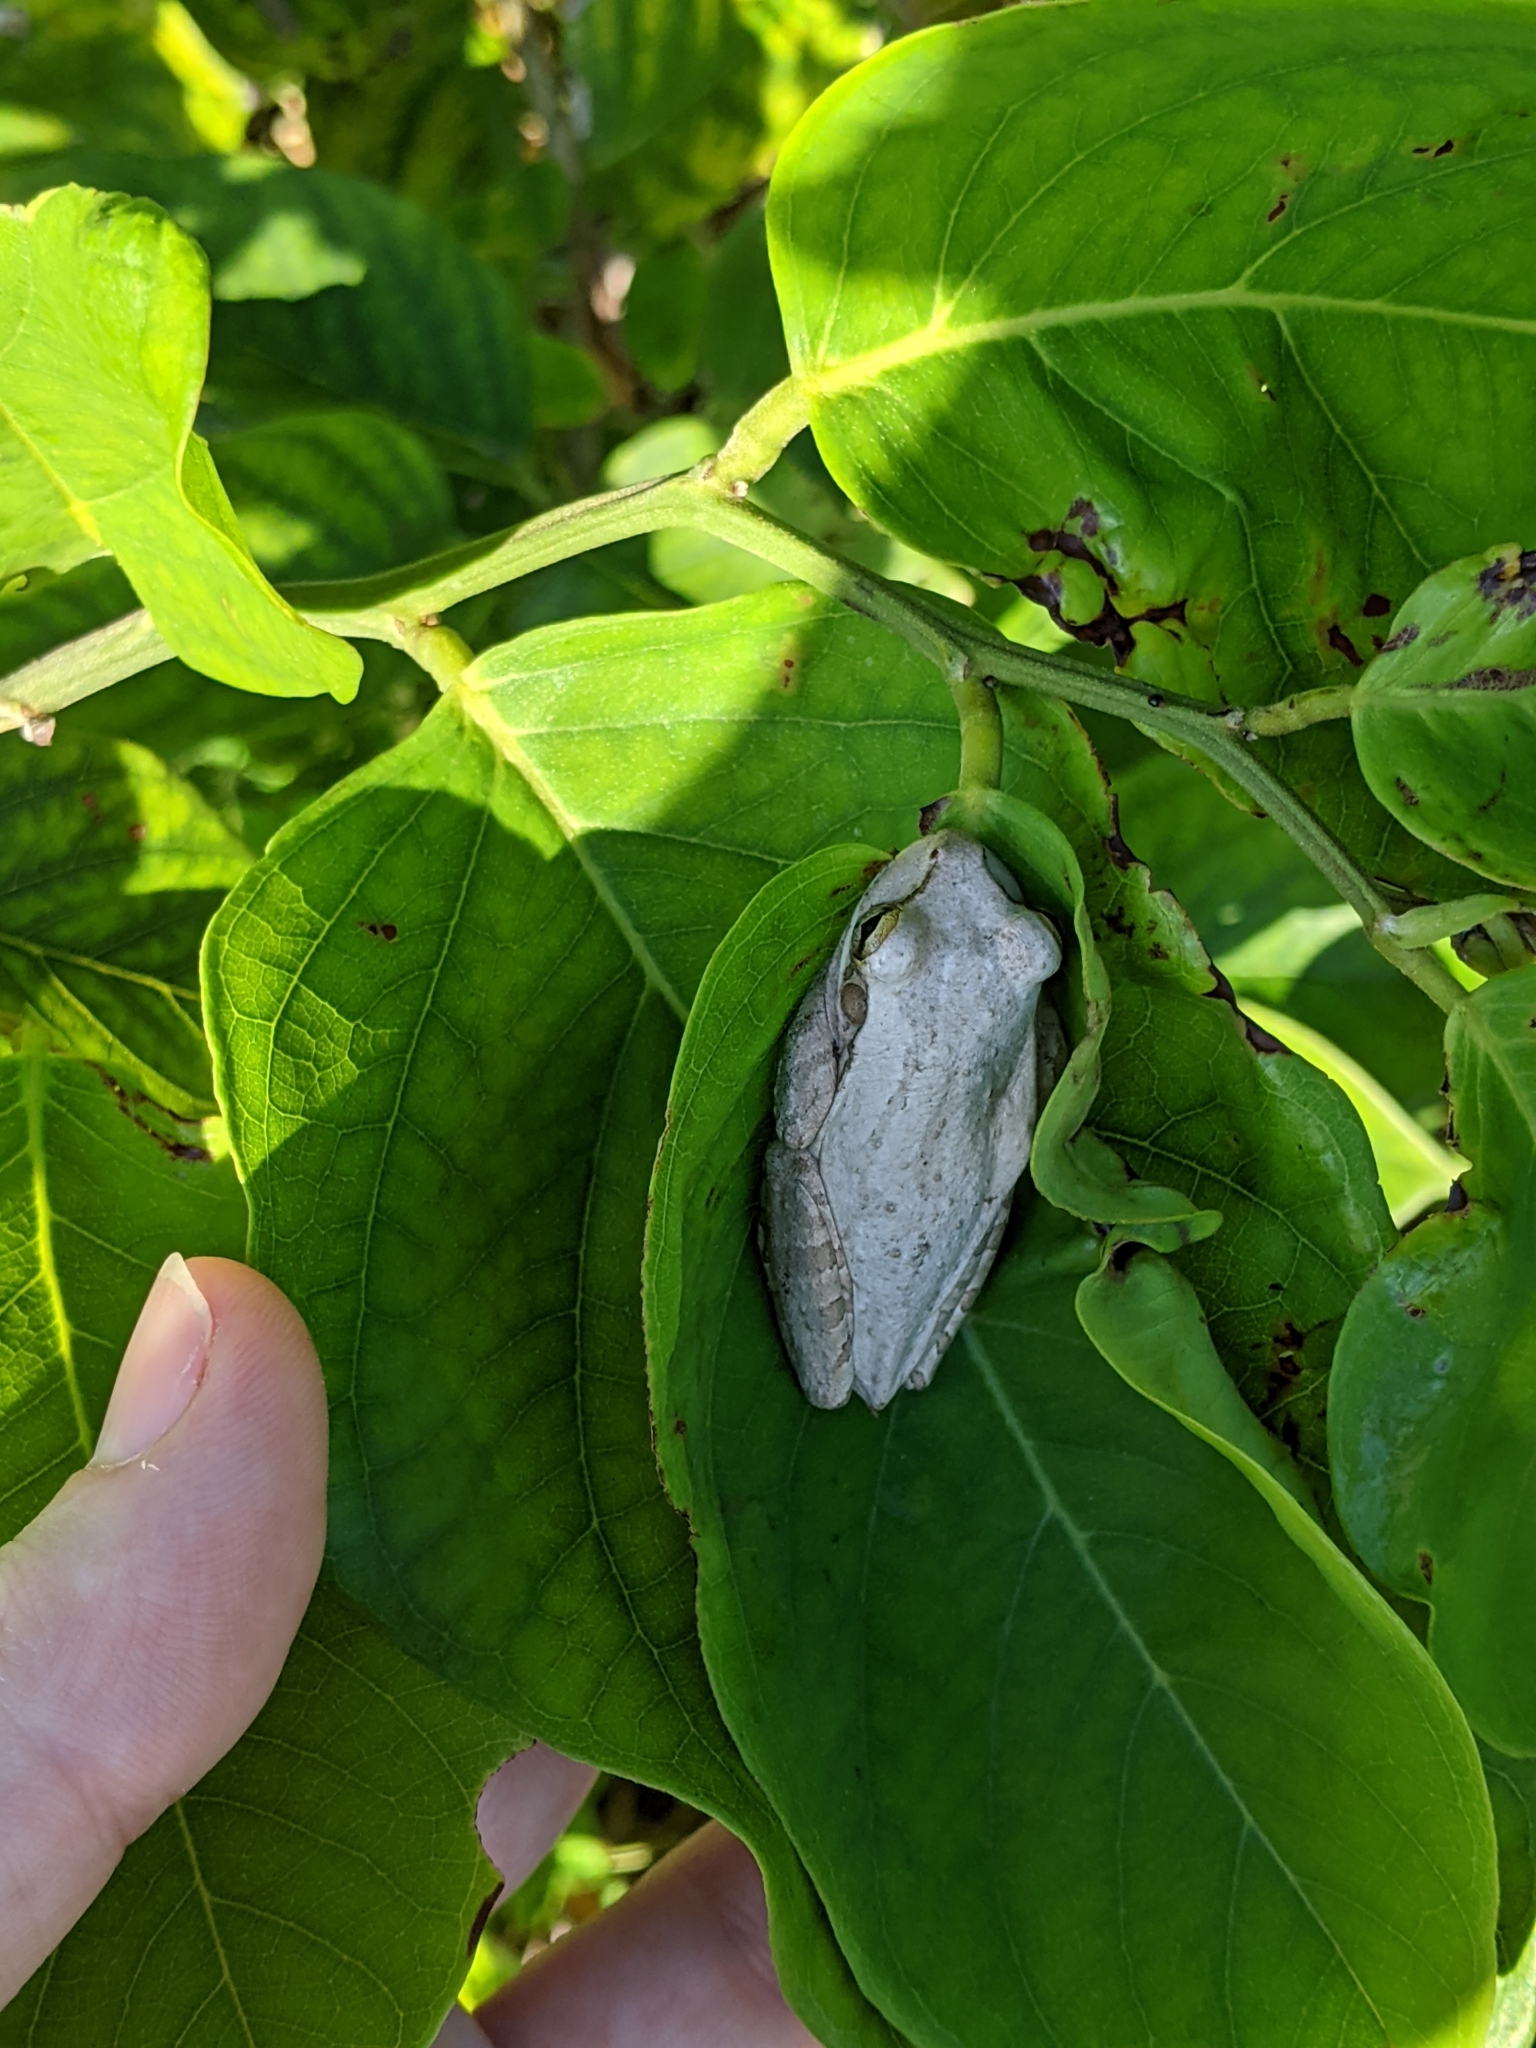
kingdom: Animalia
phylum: Chordata
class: Amphibia
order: Anura
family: Hylidae
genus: Osteopilus
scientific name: Osteopilus septentrionalis
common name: Cuban treefrog
